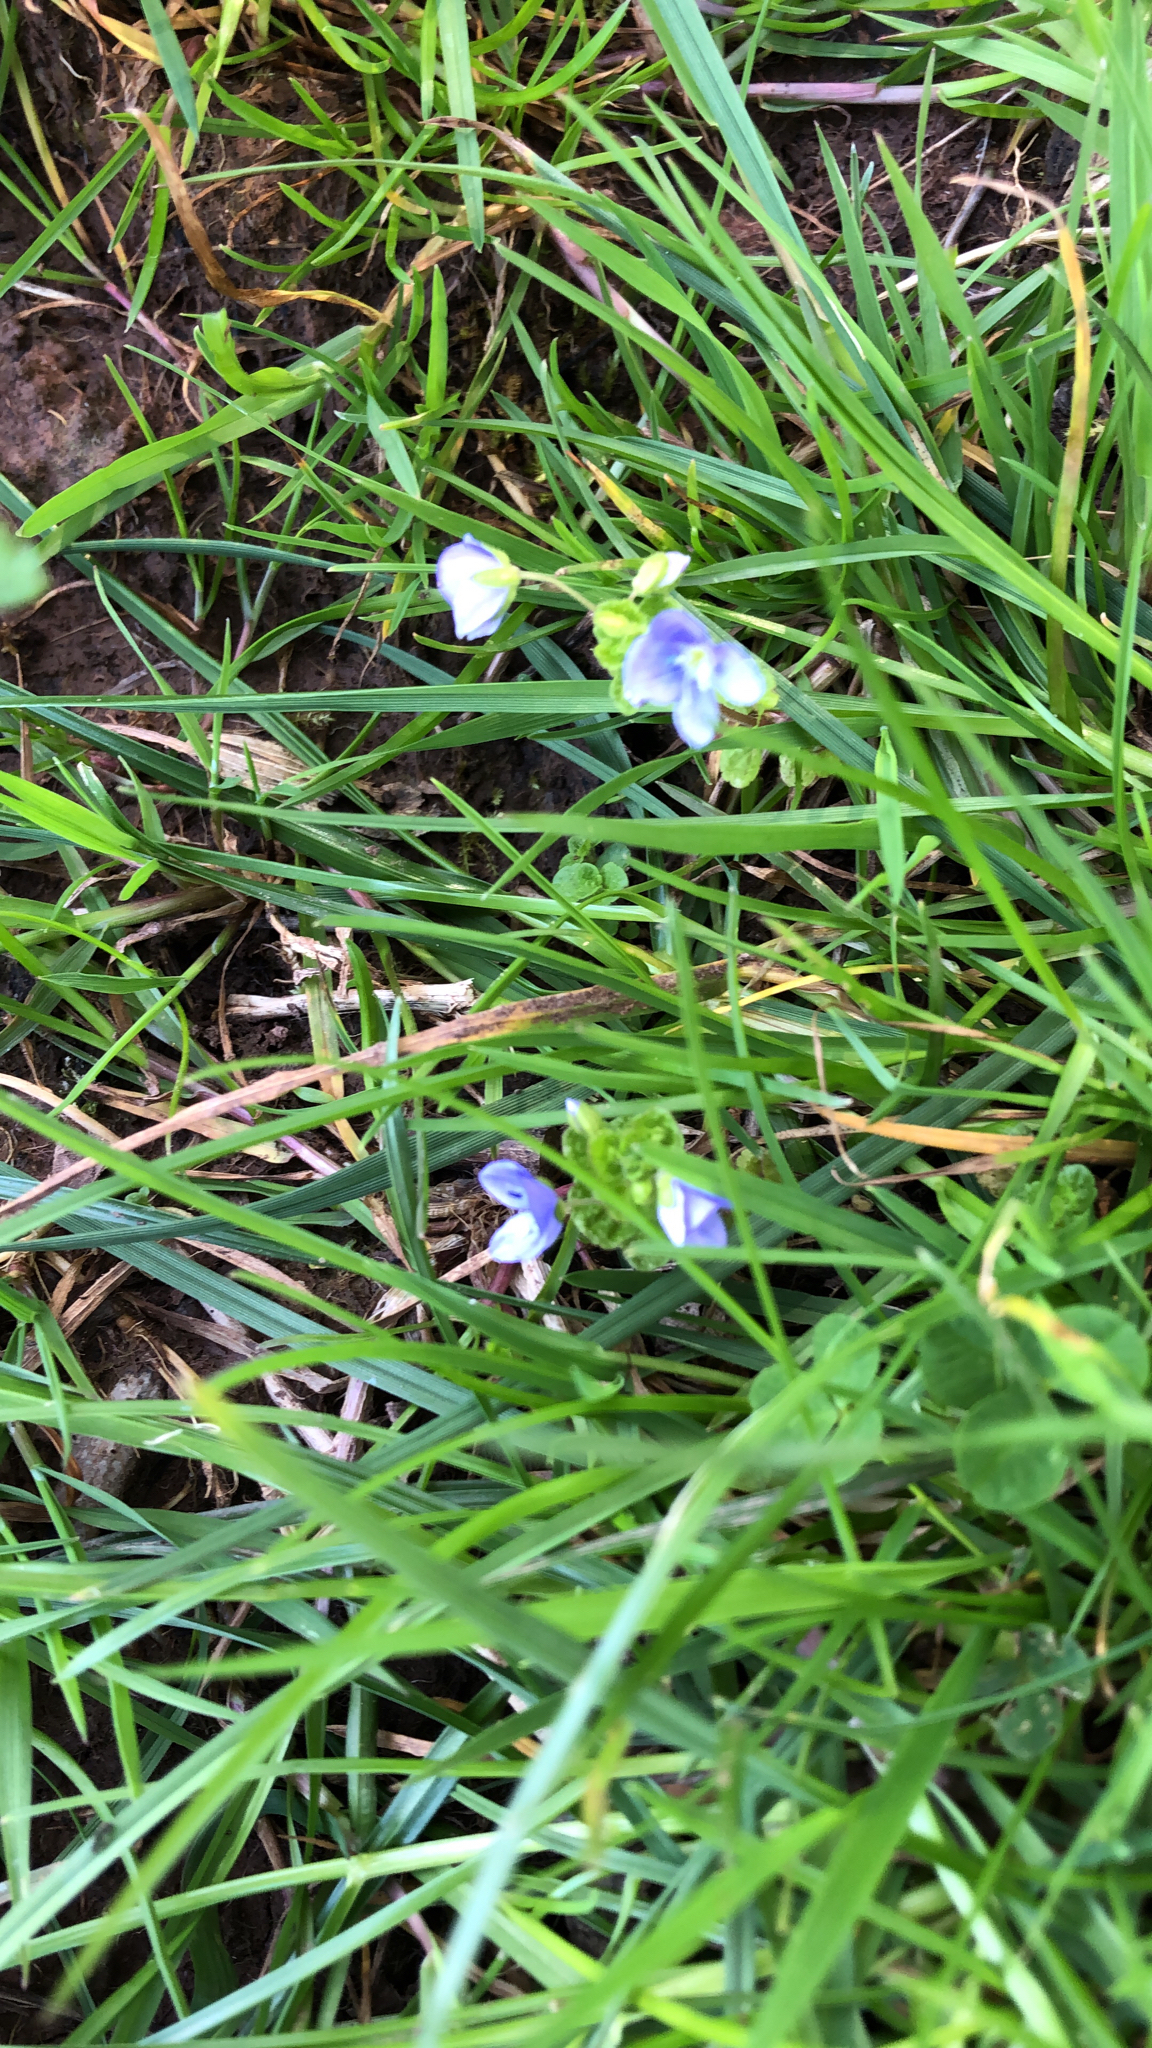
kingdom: Plantae
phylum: Tracheophyta
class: Magnoliopsida
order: Lamiales
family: Plantaginaceae
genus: Veronica
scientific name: Veronica filiformis
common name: Slender speedwell
